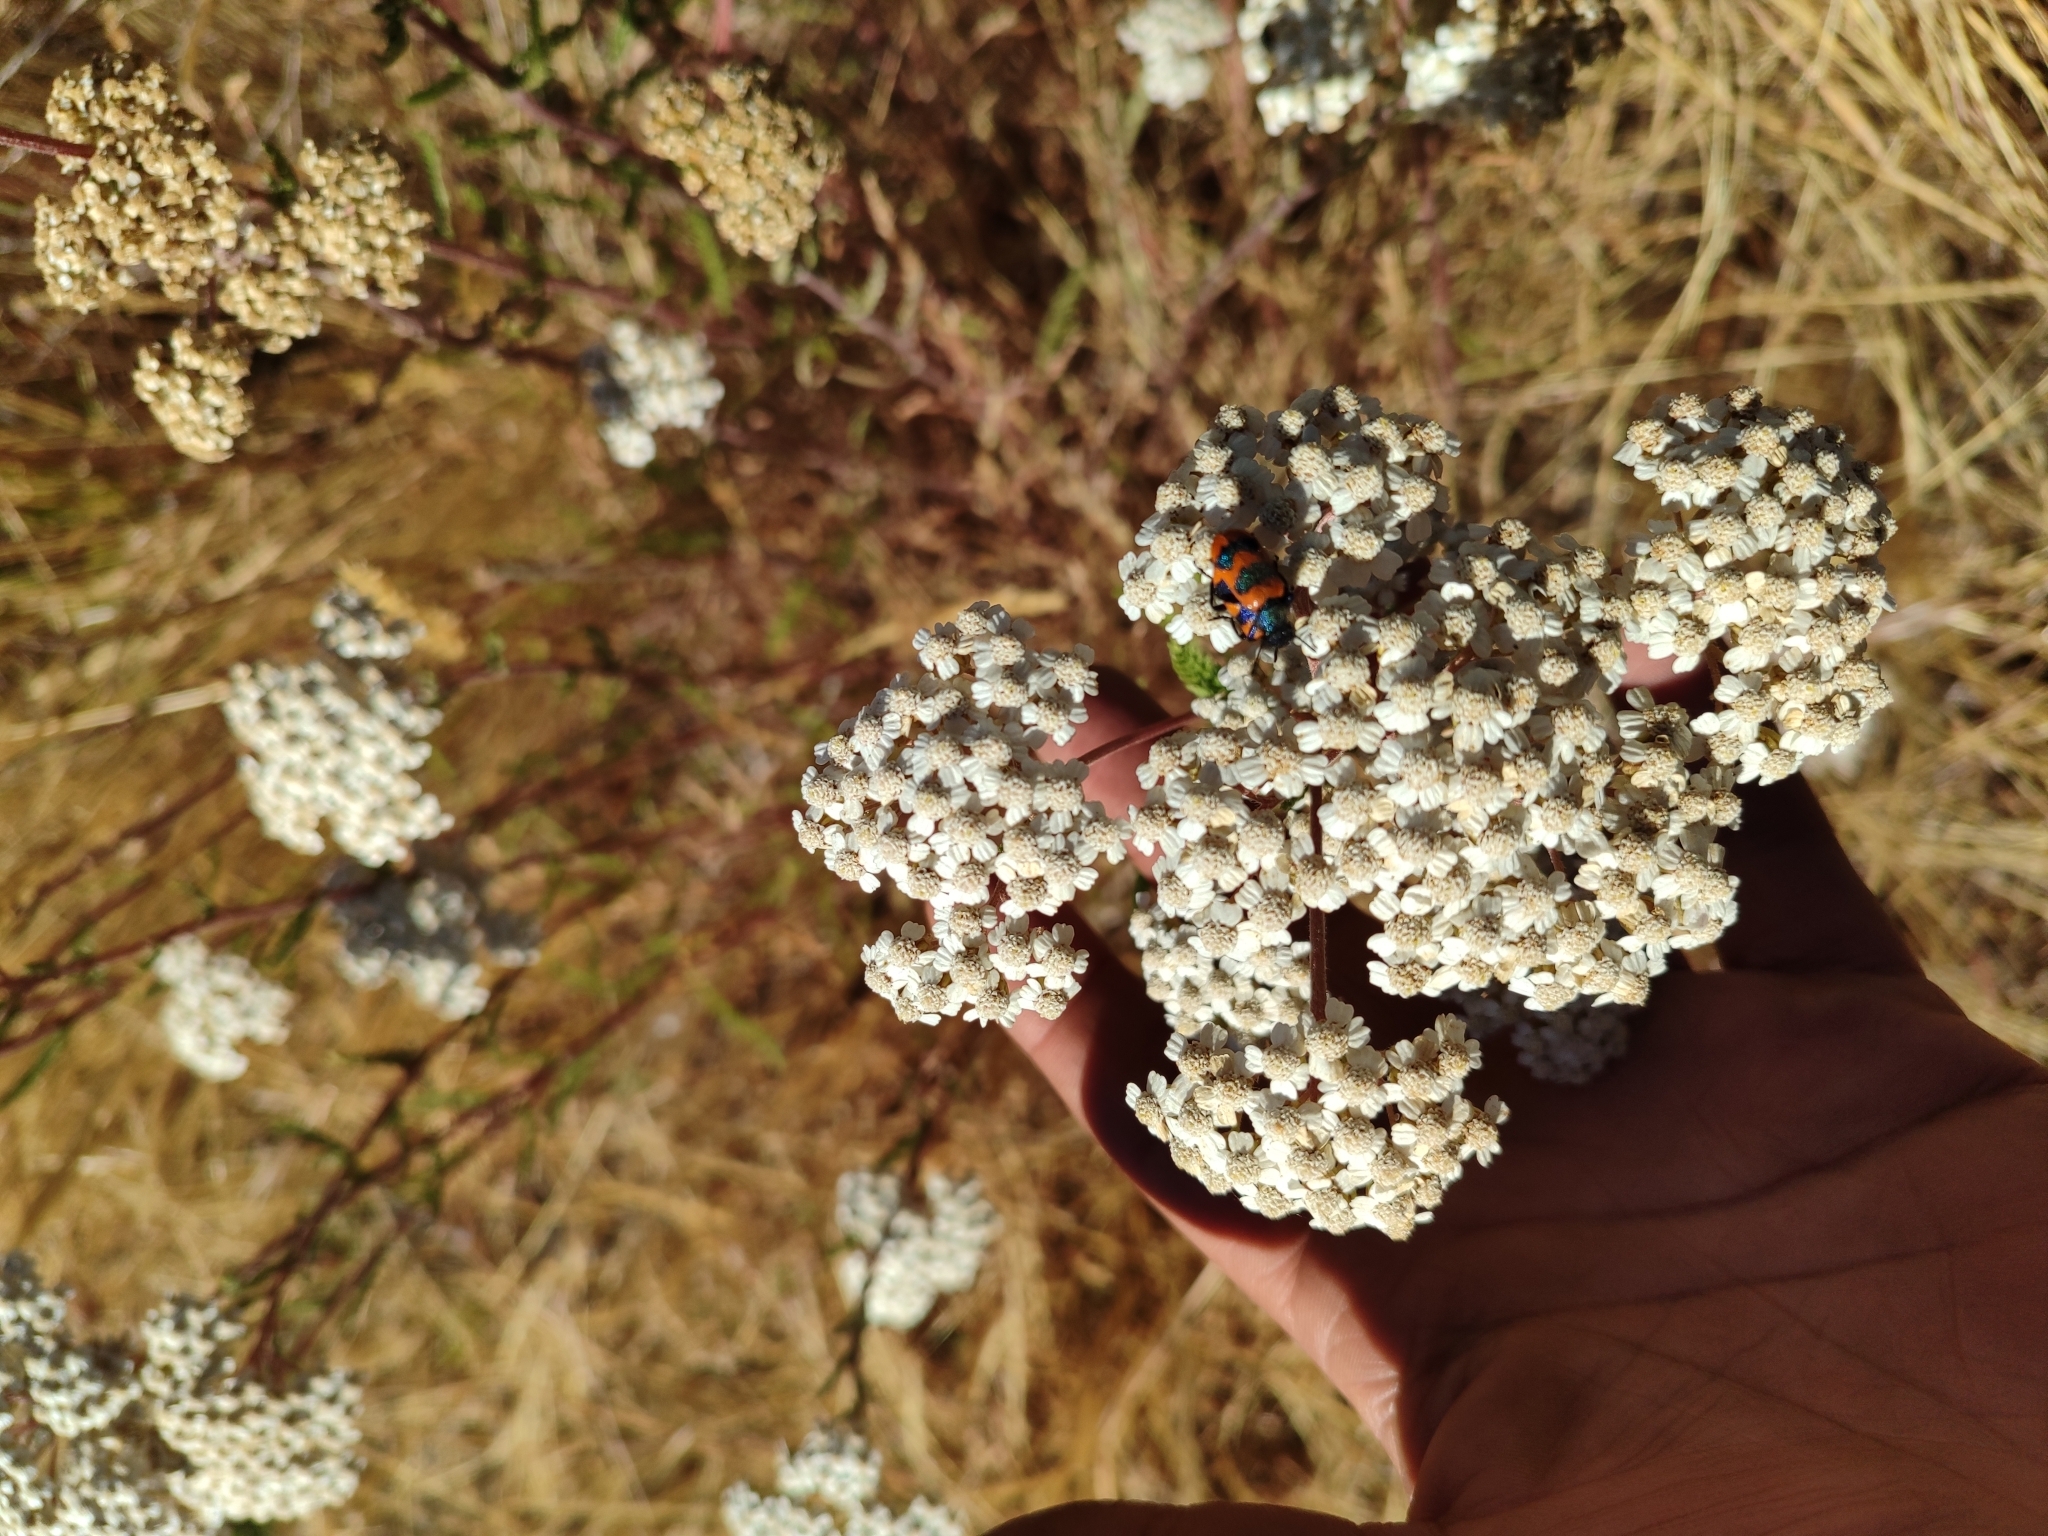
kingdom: Plantae
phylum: Tracheophyta
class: Magnoliopsida
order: Asterales
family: Asteraceae
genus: Achillea
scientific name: Achillea millefolium
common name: Yarrow
